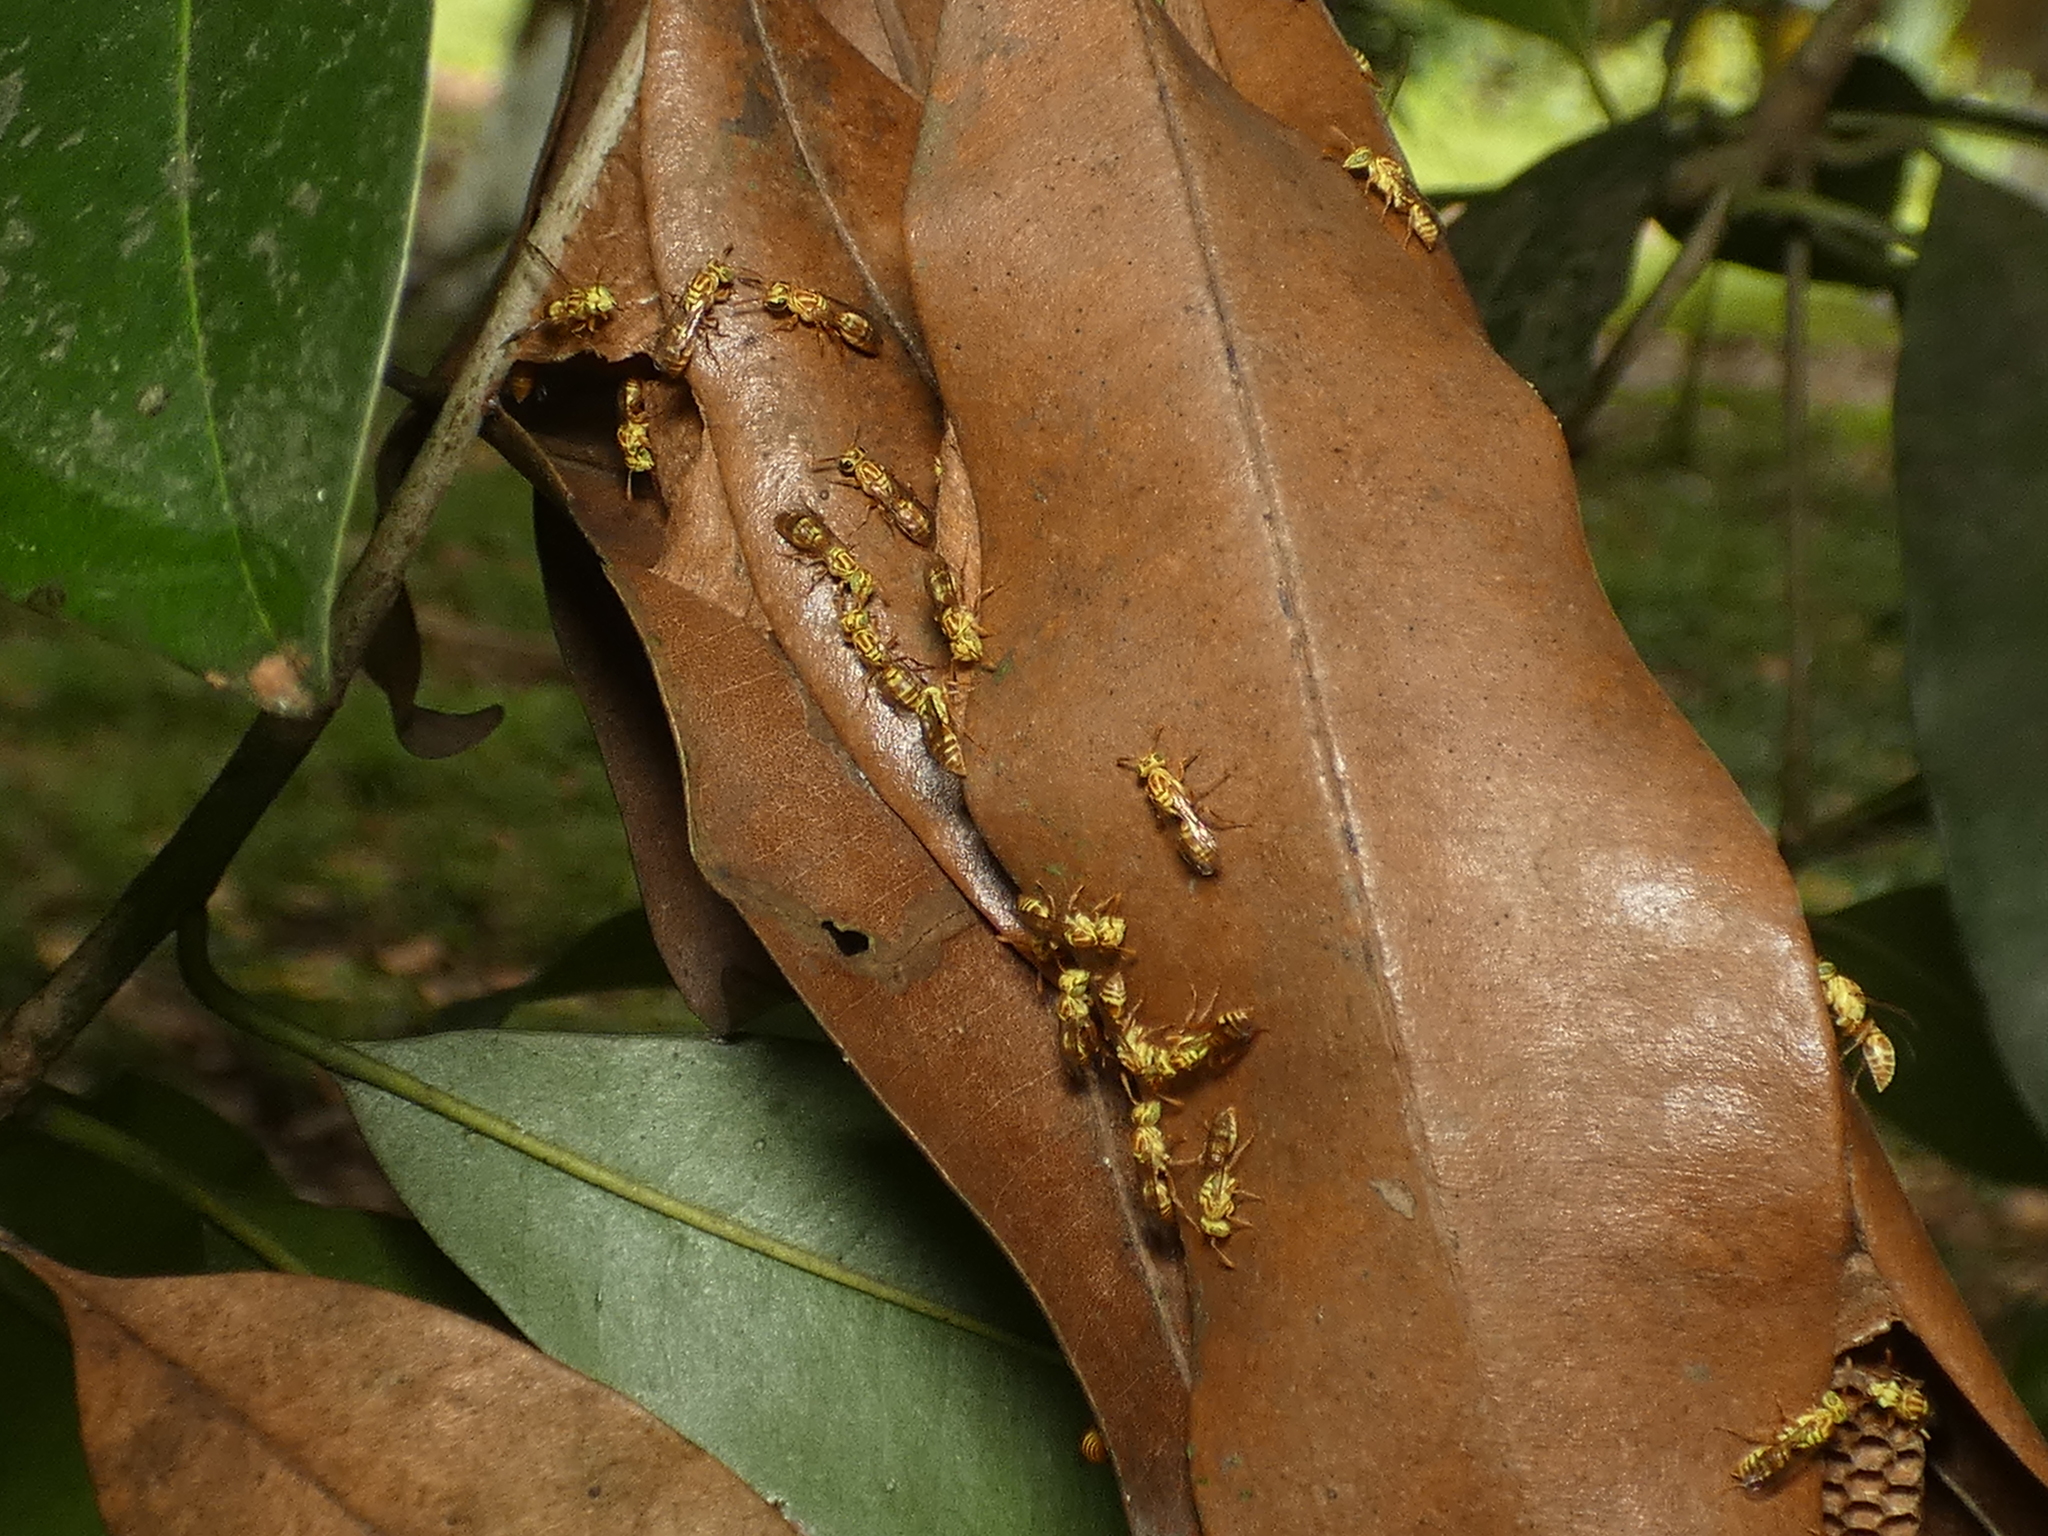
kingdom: Animalia
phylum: Arthropoda
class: Insecta
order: Hymenoptera
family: Vespidae
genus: Protopolybia
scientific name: Protopolybia potiguara
